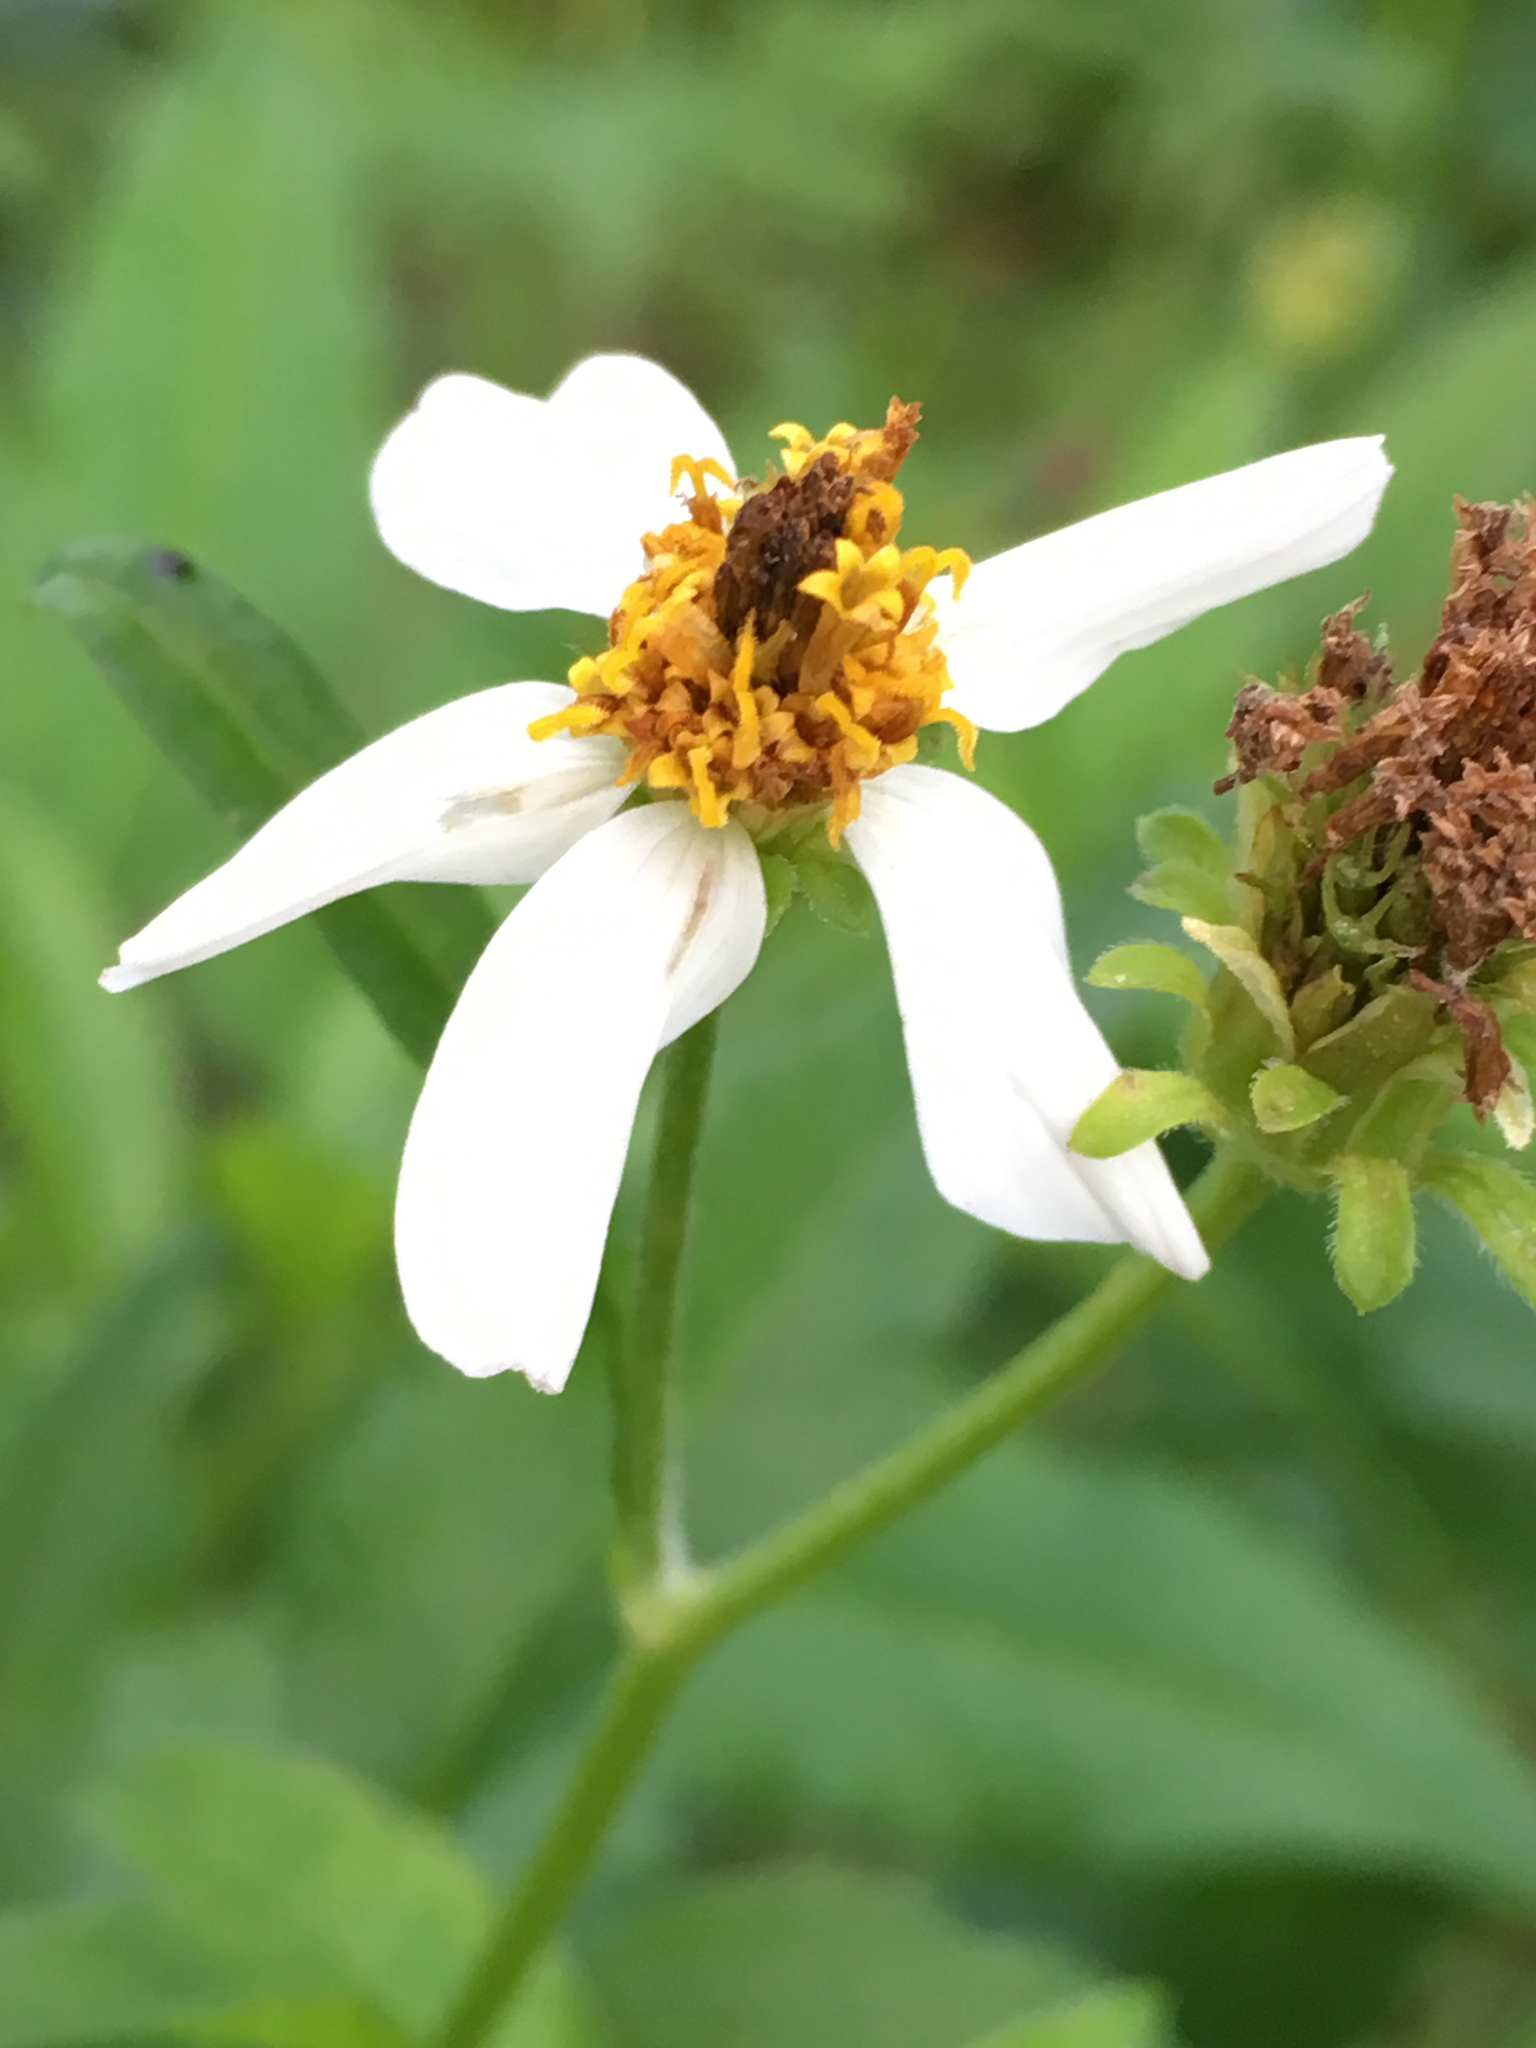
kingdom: Plantae
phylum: Tracheophyta
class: Magnoliopsida
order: Asterales
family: Asteraceae
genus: Bidens
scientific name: Bidens alba
